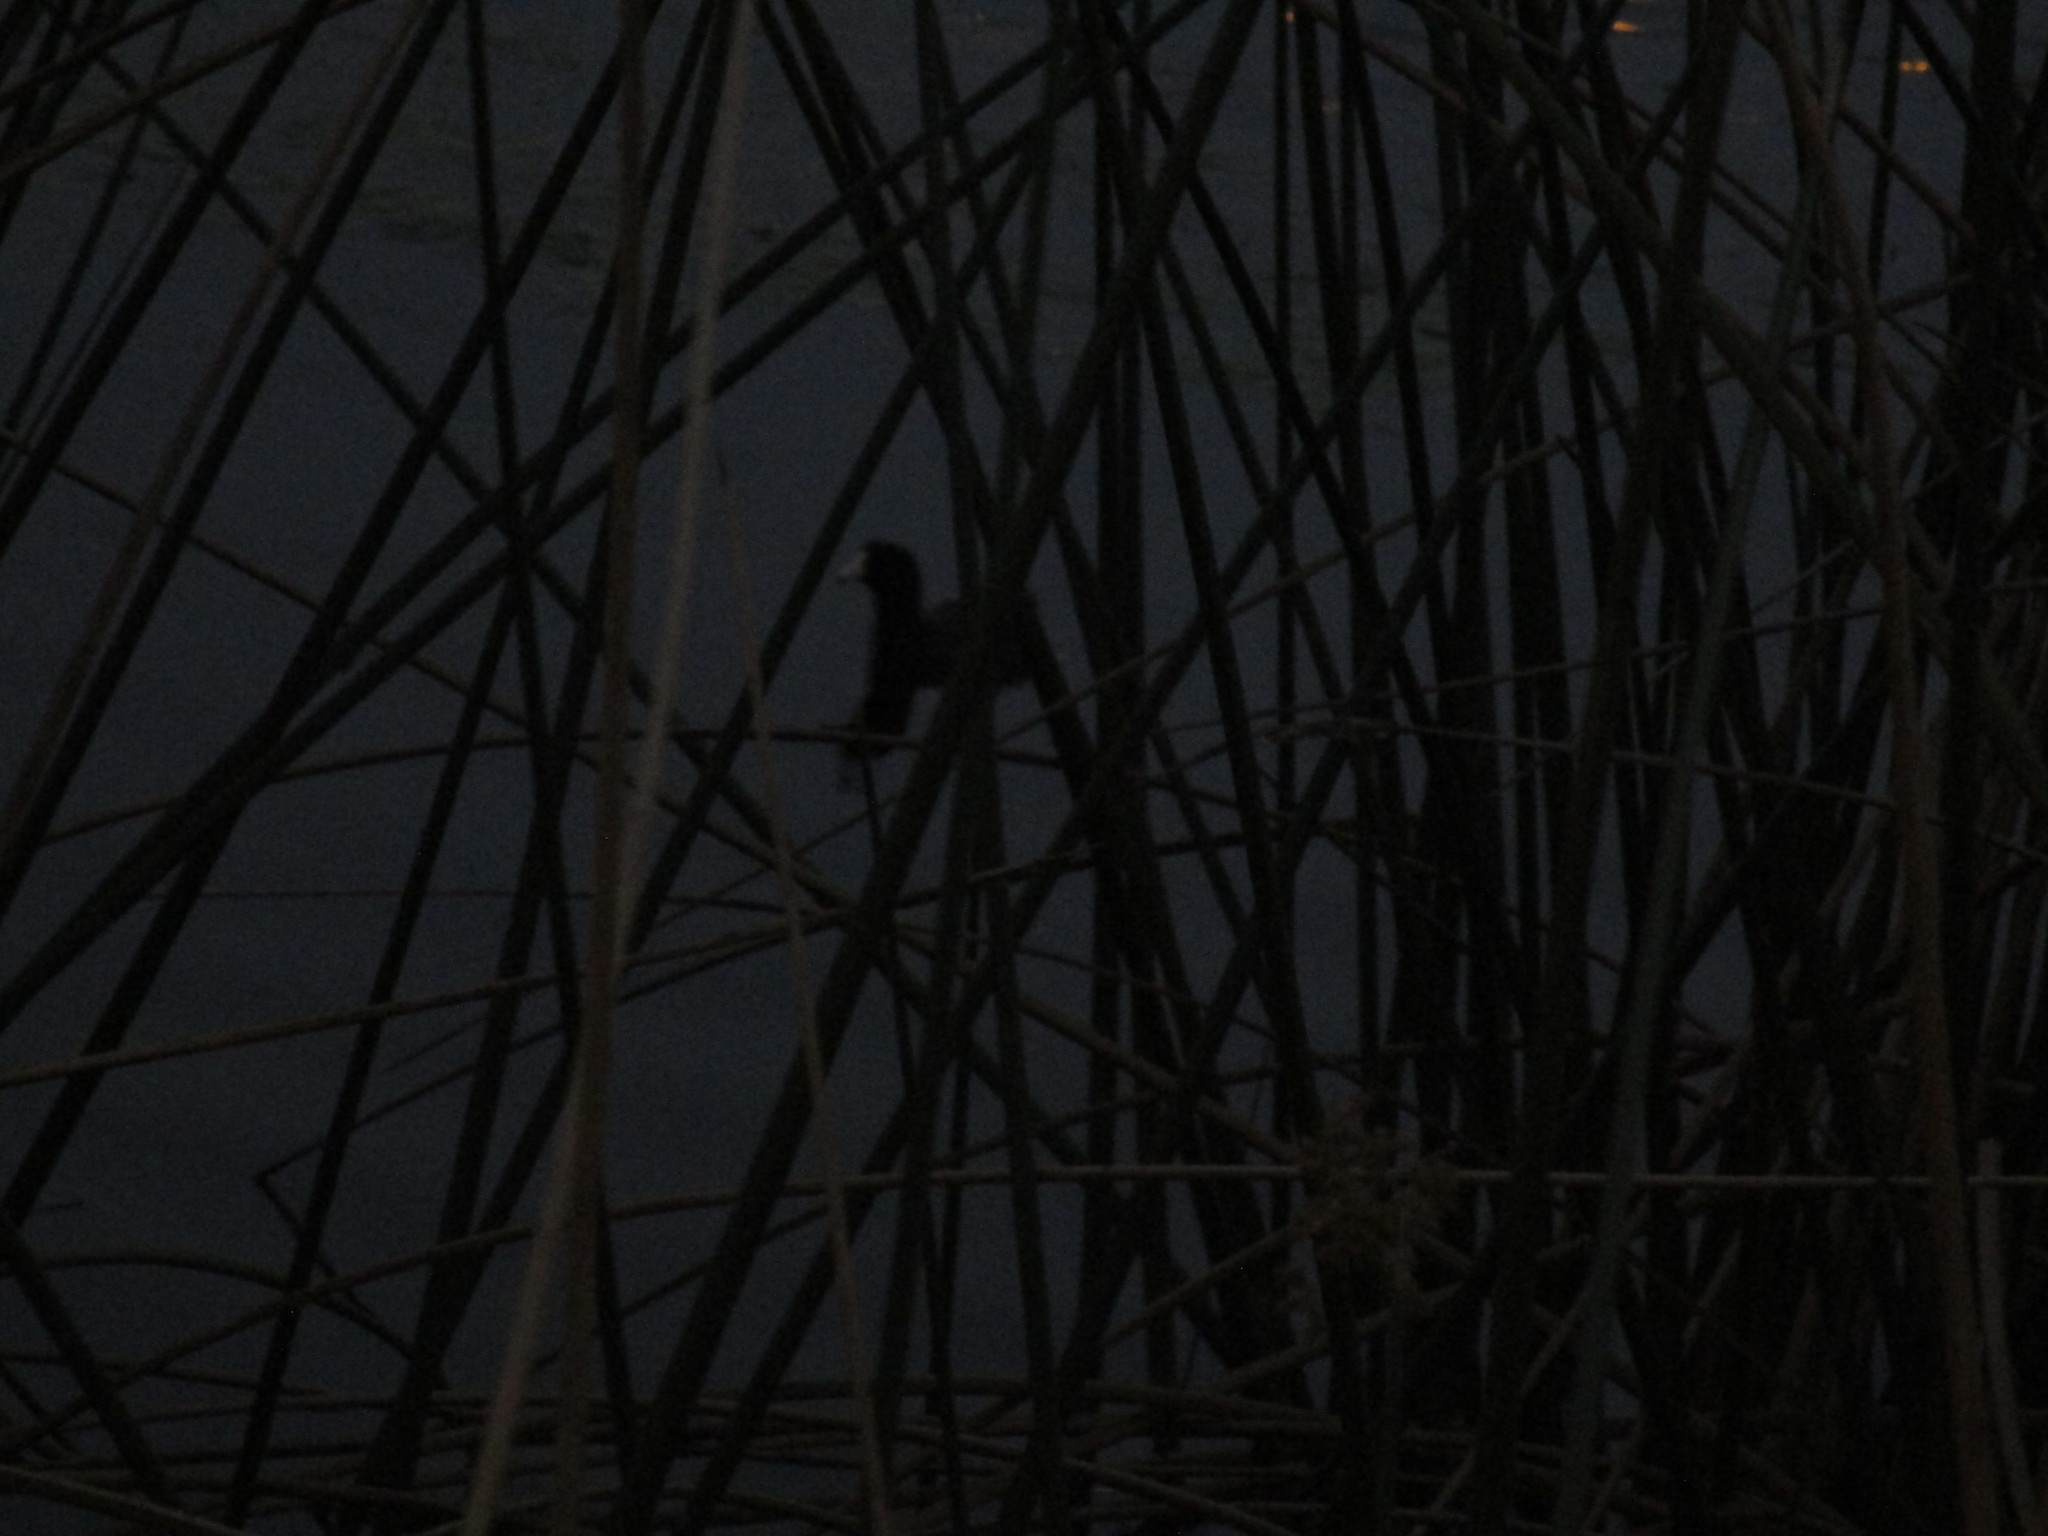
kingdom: Animalia
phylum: Chordata
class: Aves
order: Gruiformes
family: Rallidae
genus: Fulica
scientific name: Fulica americana
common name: American coot
